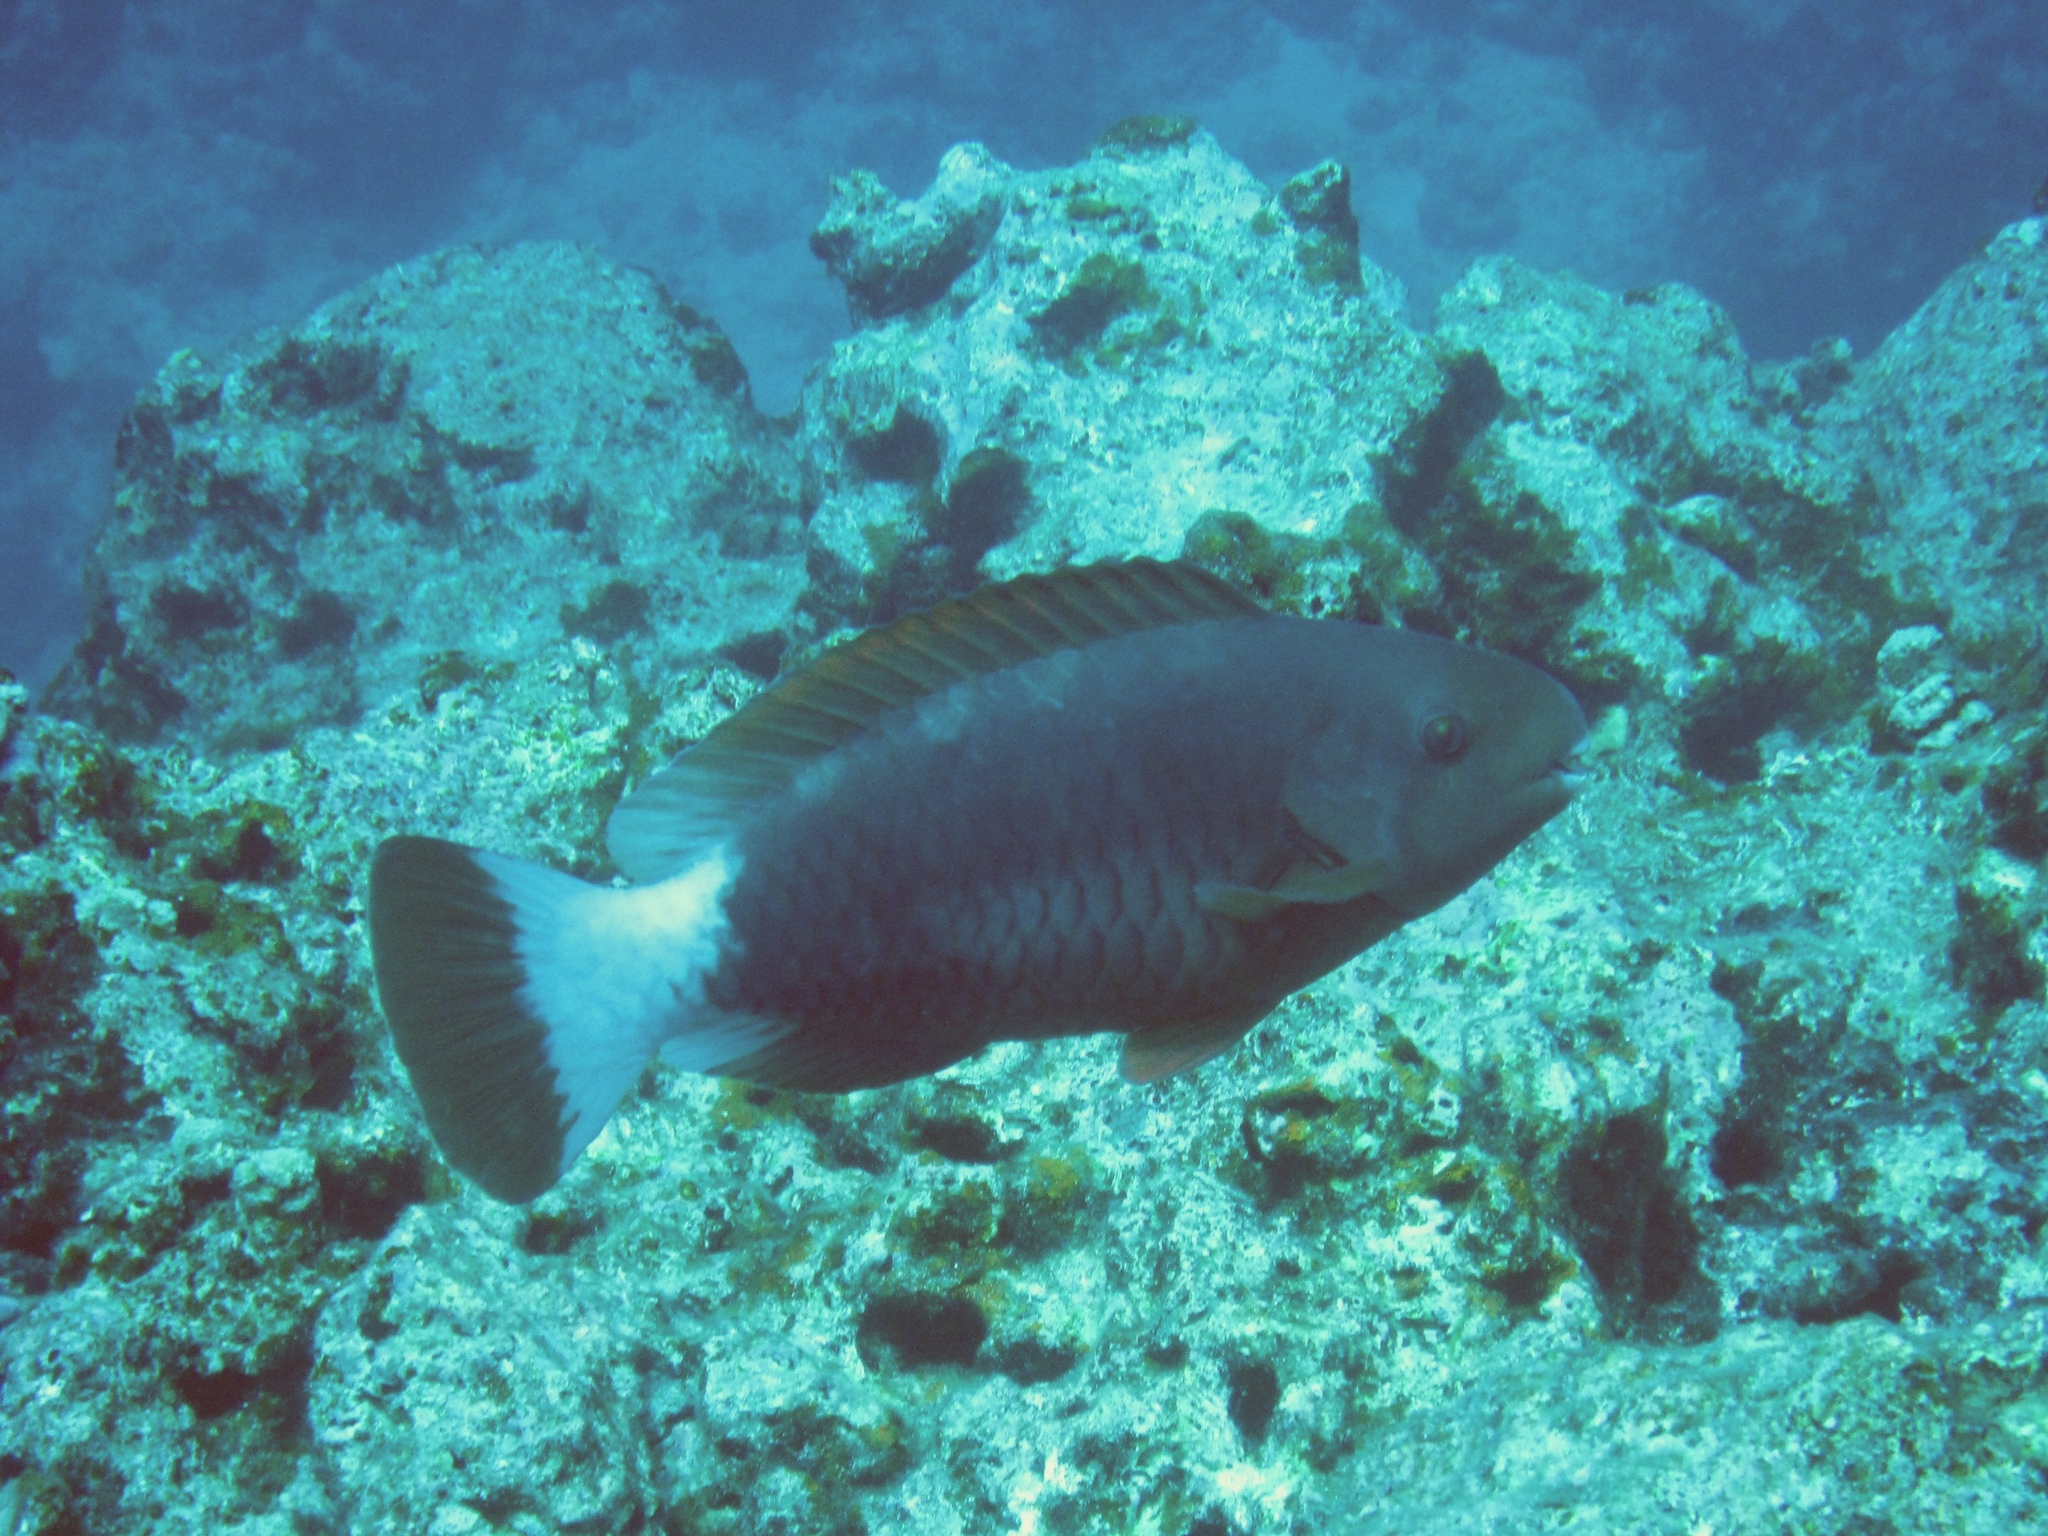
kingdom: Animalia
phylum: Chordata
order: Perciformes
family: Scaridae
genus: Chlorurus
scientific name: Chlorurus perspicillatus
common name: Spectacled parrotfish
